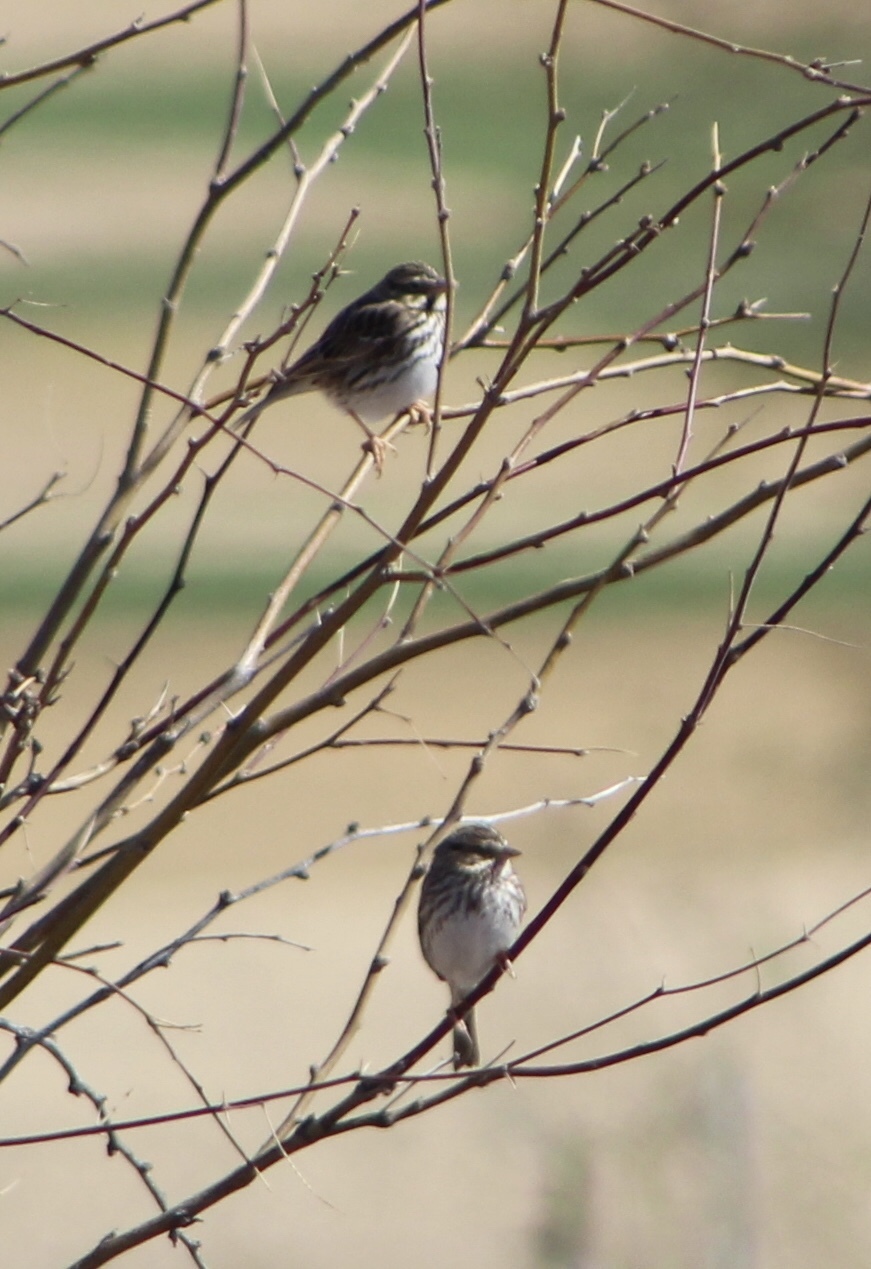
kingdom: Animalia
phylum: Chordata
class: Aves
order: Passeriformes
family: Passerellidae
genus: Passerculus
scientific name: Passerculus sandwichensis
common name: Savannah sparrow
